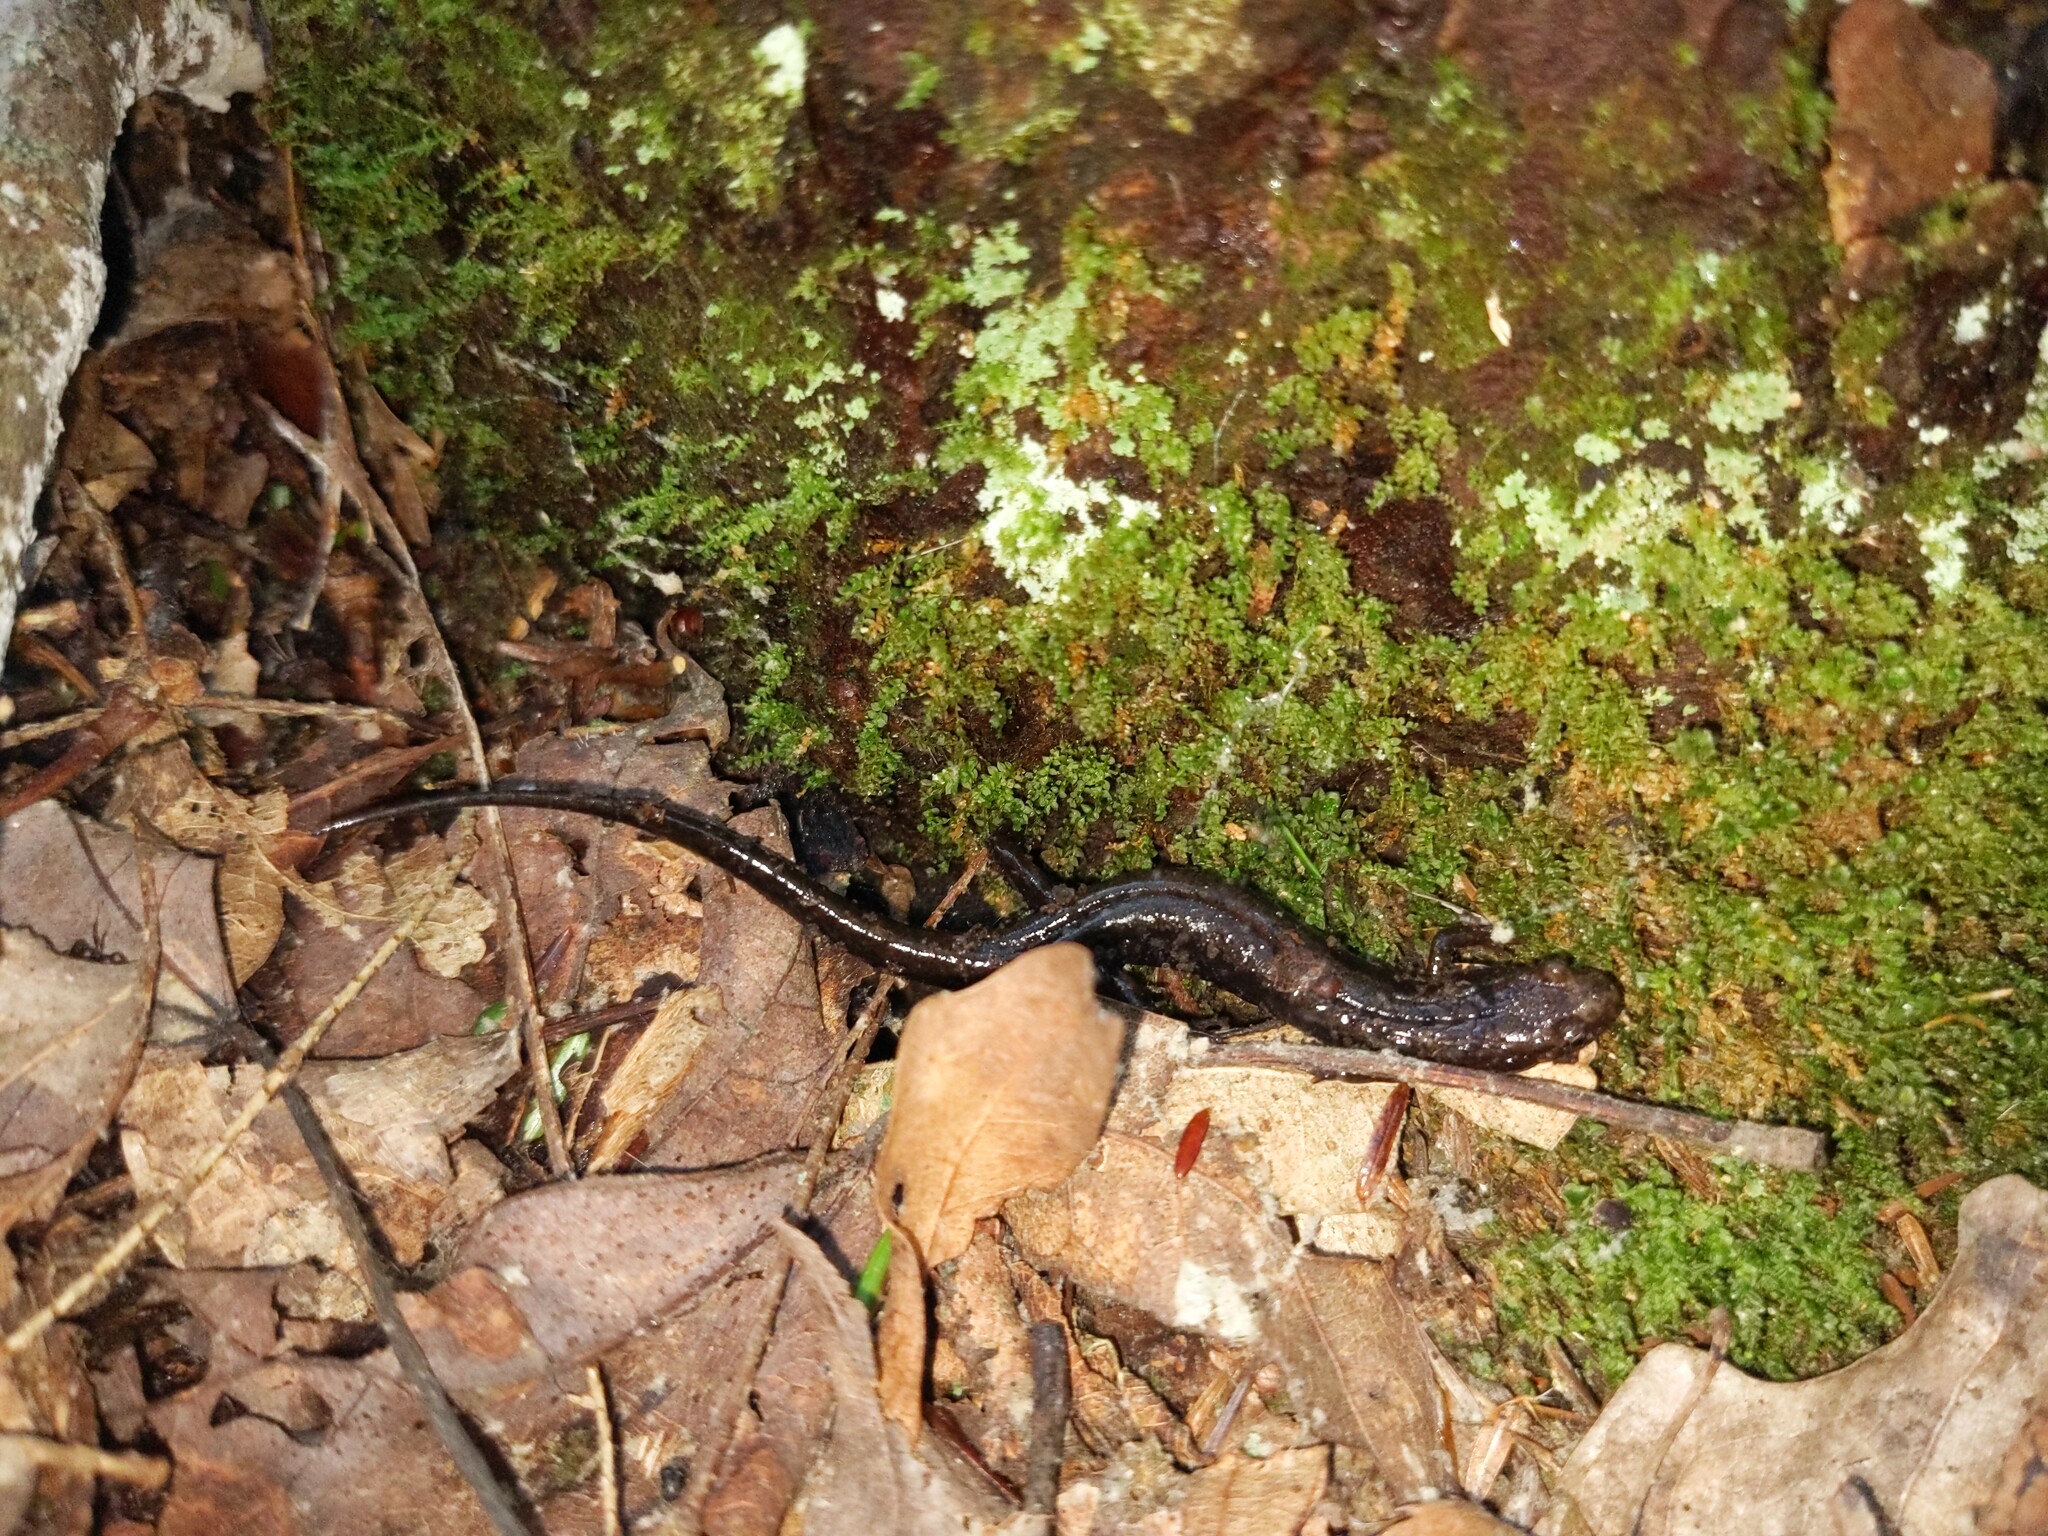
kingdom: Animalia
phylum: Chordata
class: Amphibia
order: Caudata
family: Plethodontidae
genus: Desmognathus
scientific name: Desmognathus ochrophaeus
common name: Allegheny mountain dusky salamander
